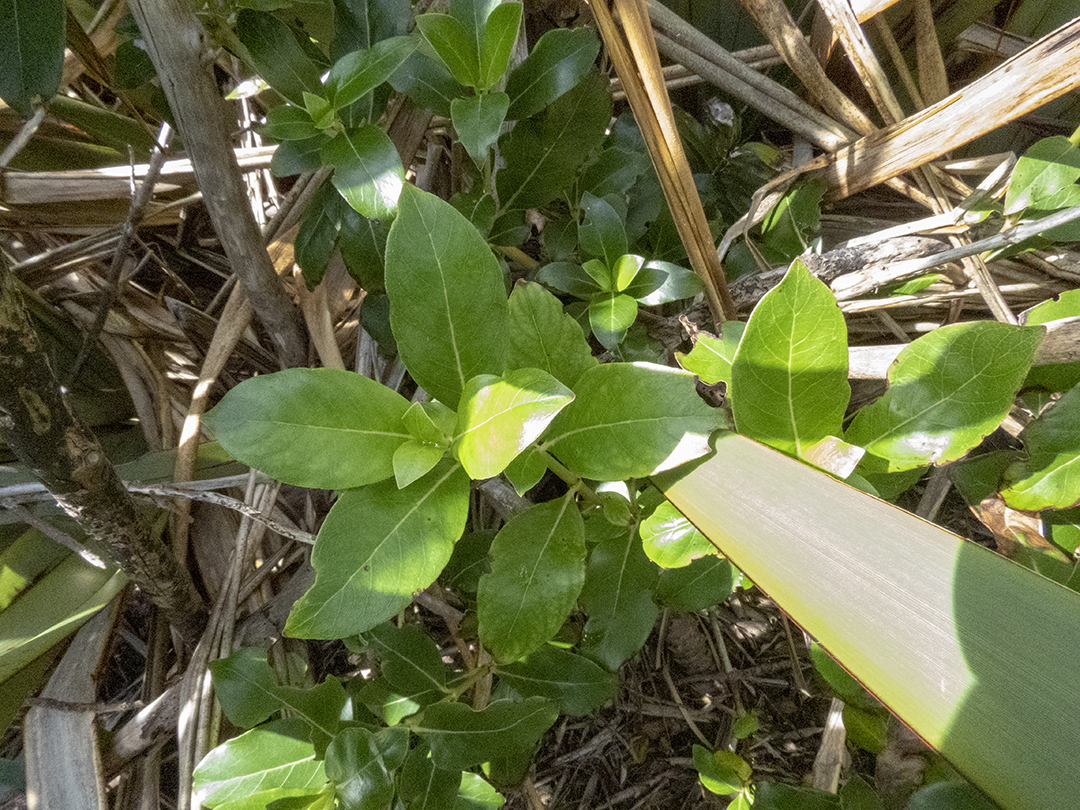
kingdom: Plantae
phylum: Tracheophyta
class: Magnoliopsida
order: Gentianales
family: Rubiaceae
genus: Coprosma
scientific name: Coprosma robusta
